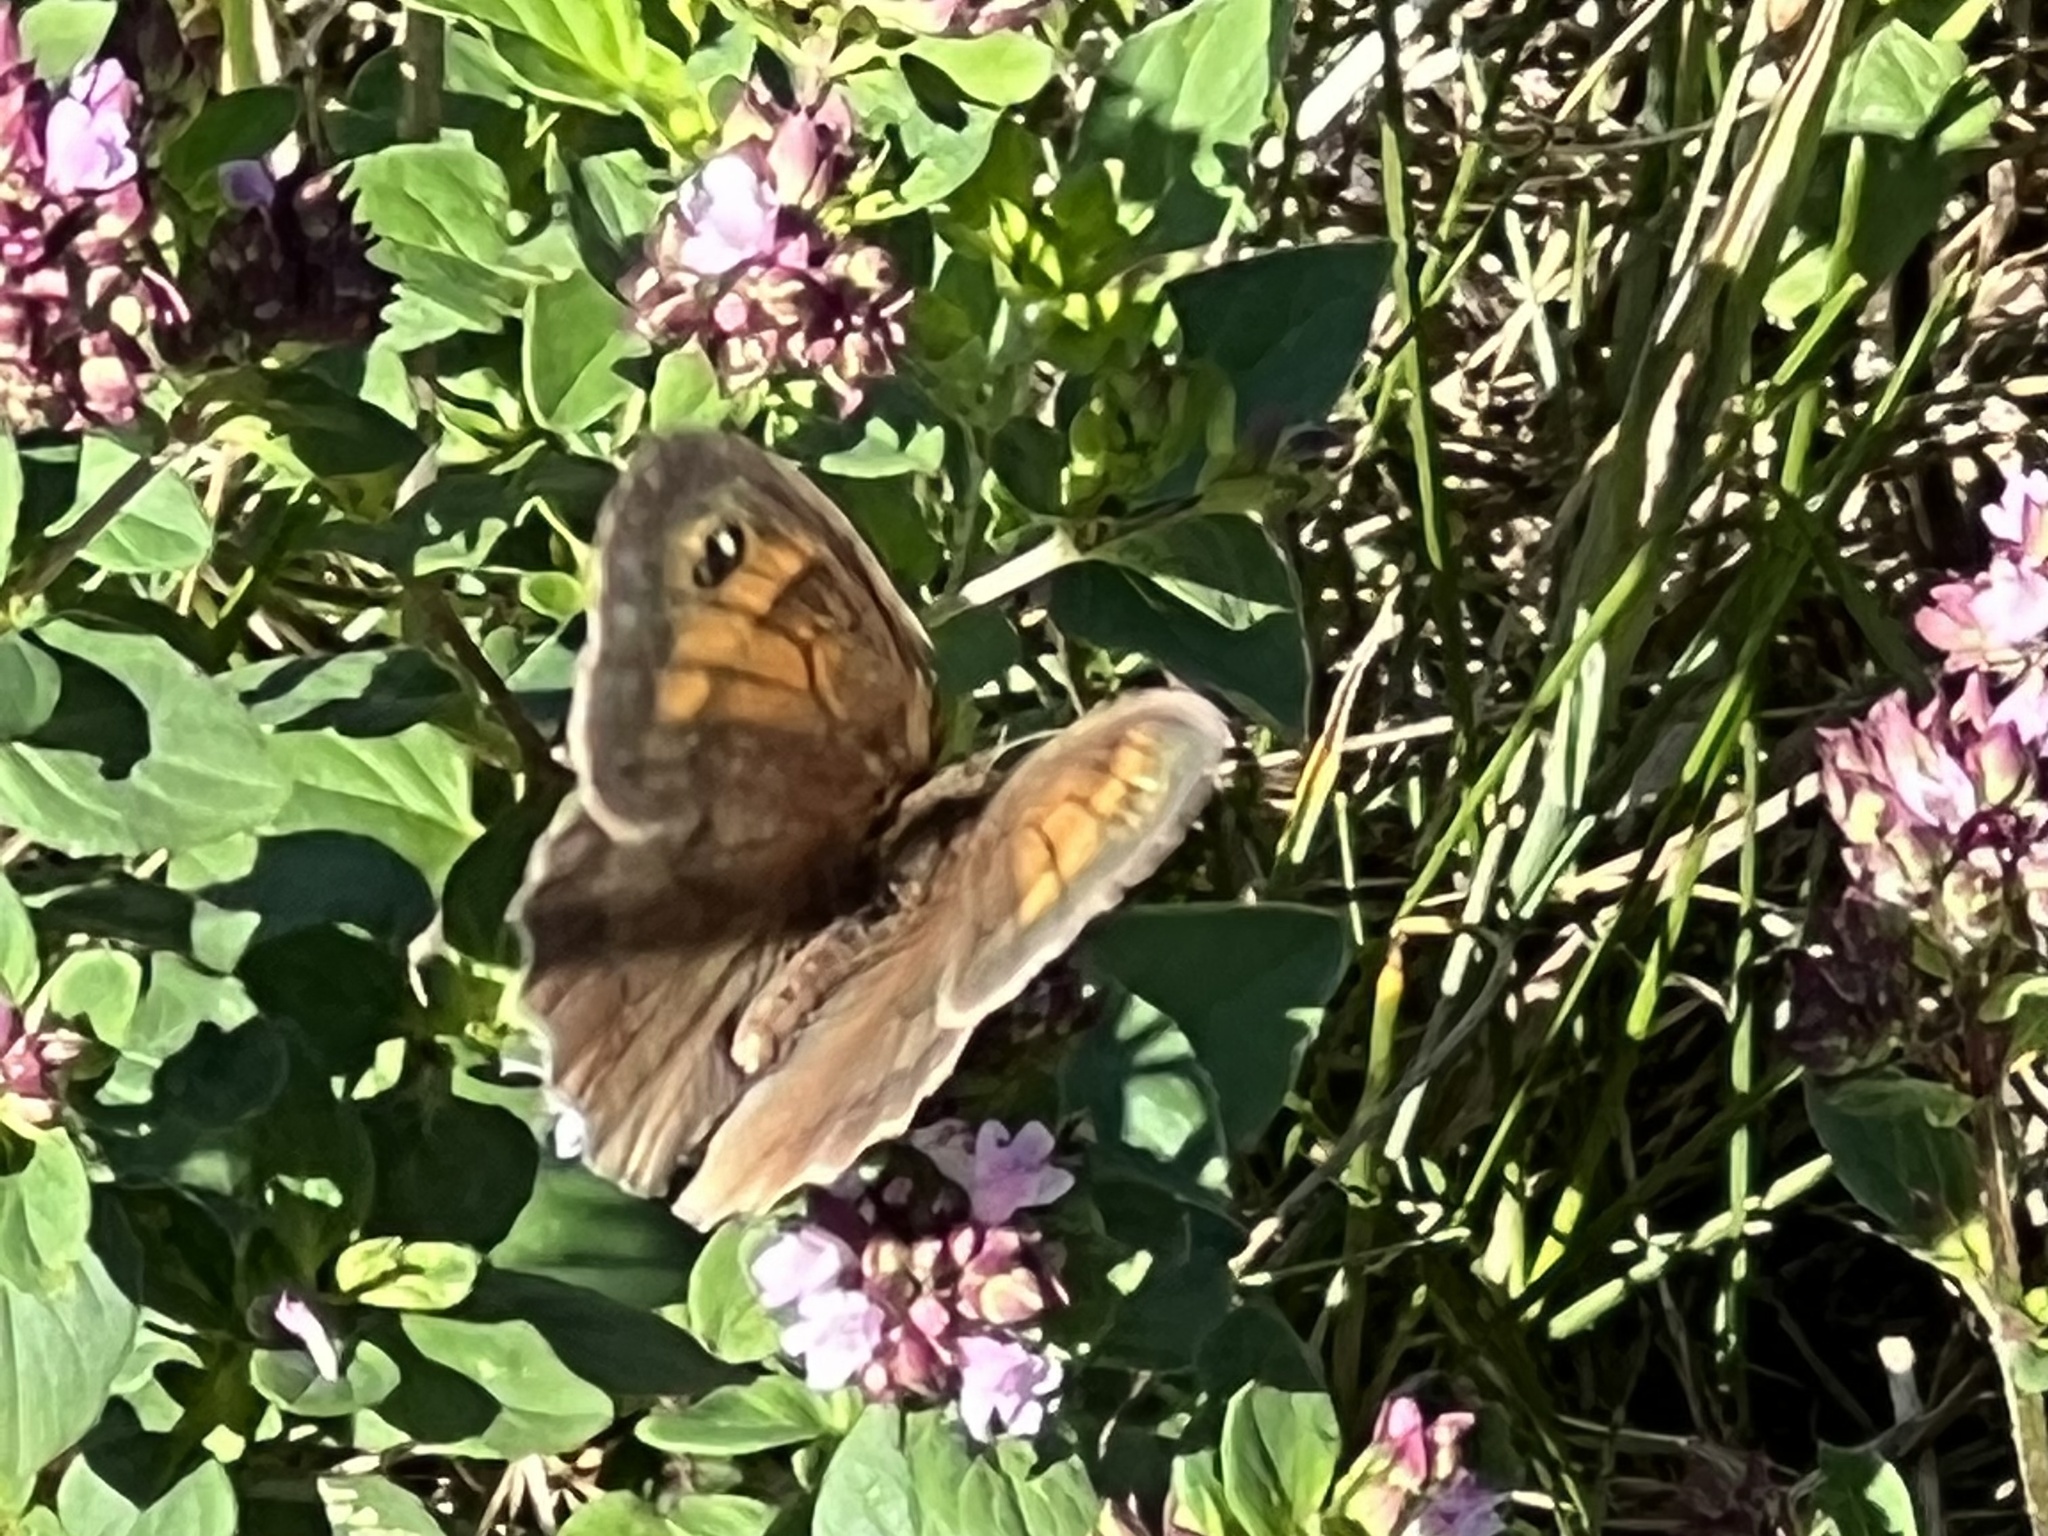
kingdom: Animalia
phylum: Arthropoda
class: Insecta
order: Lepidoptera
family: Nymphalidae
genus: Maniola
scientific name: Maniola jurtina
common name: Meadow brown
